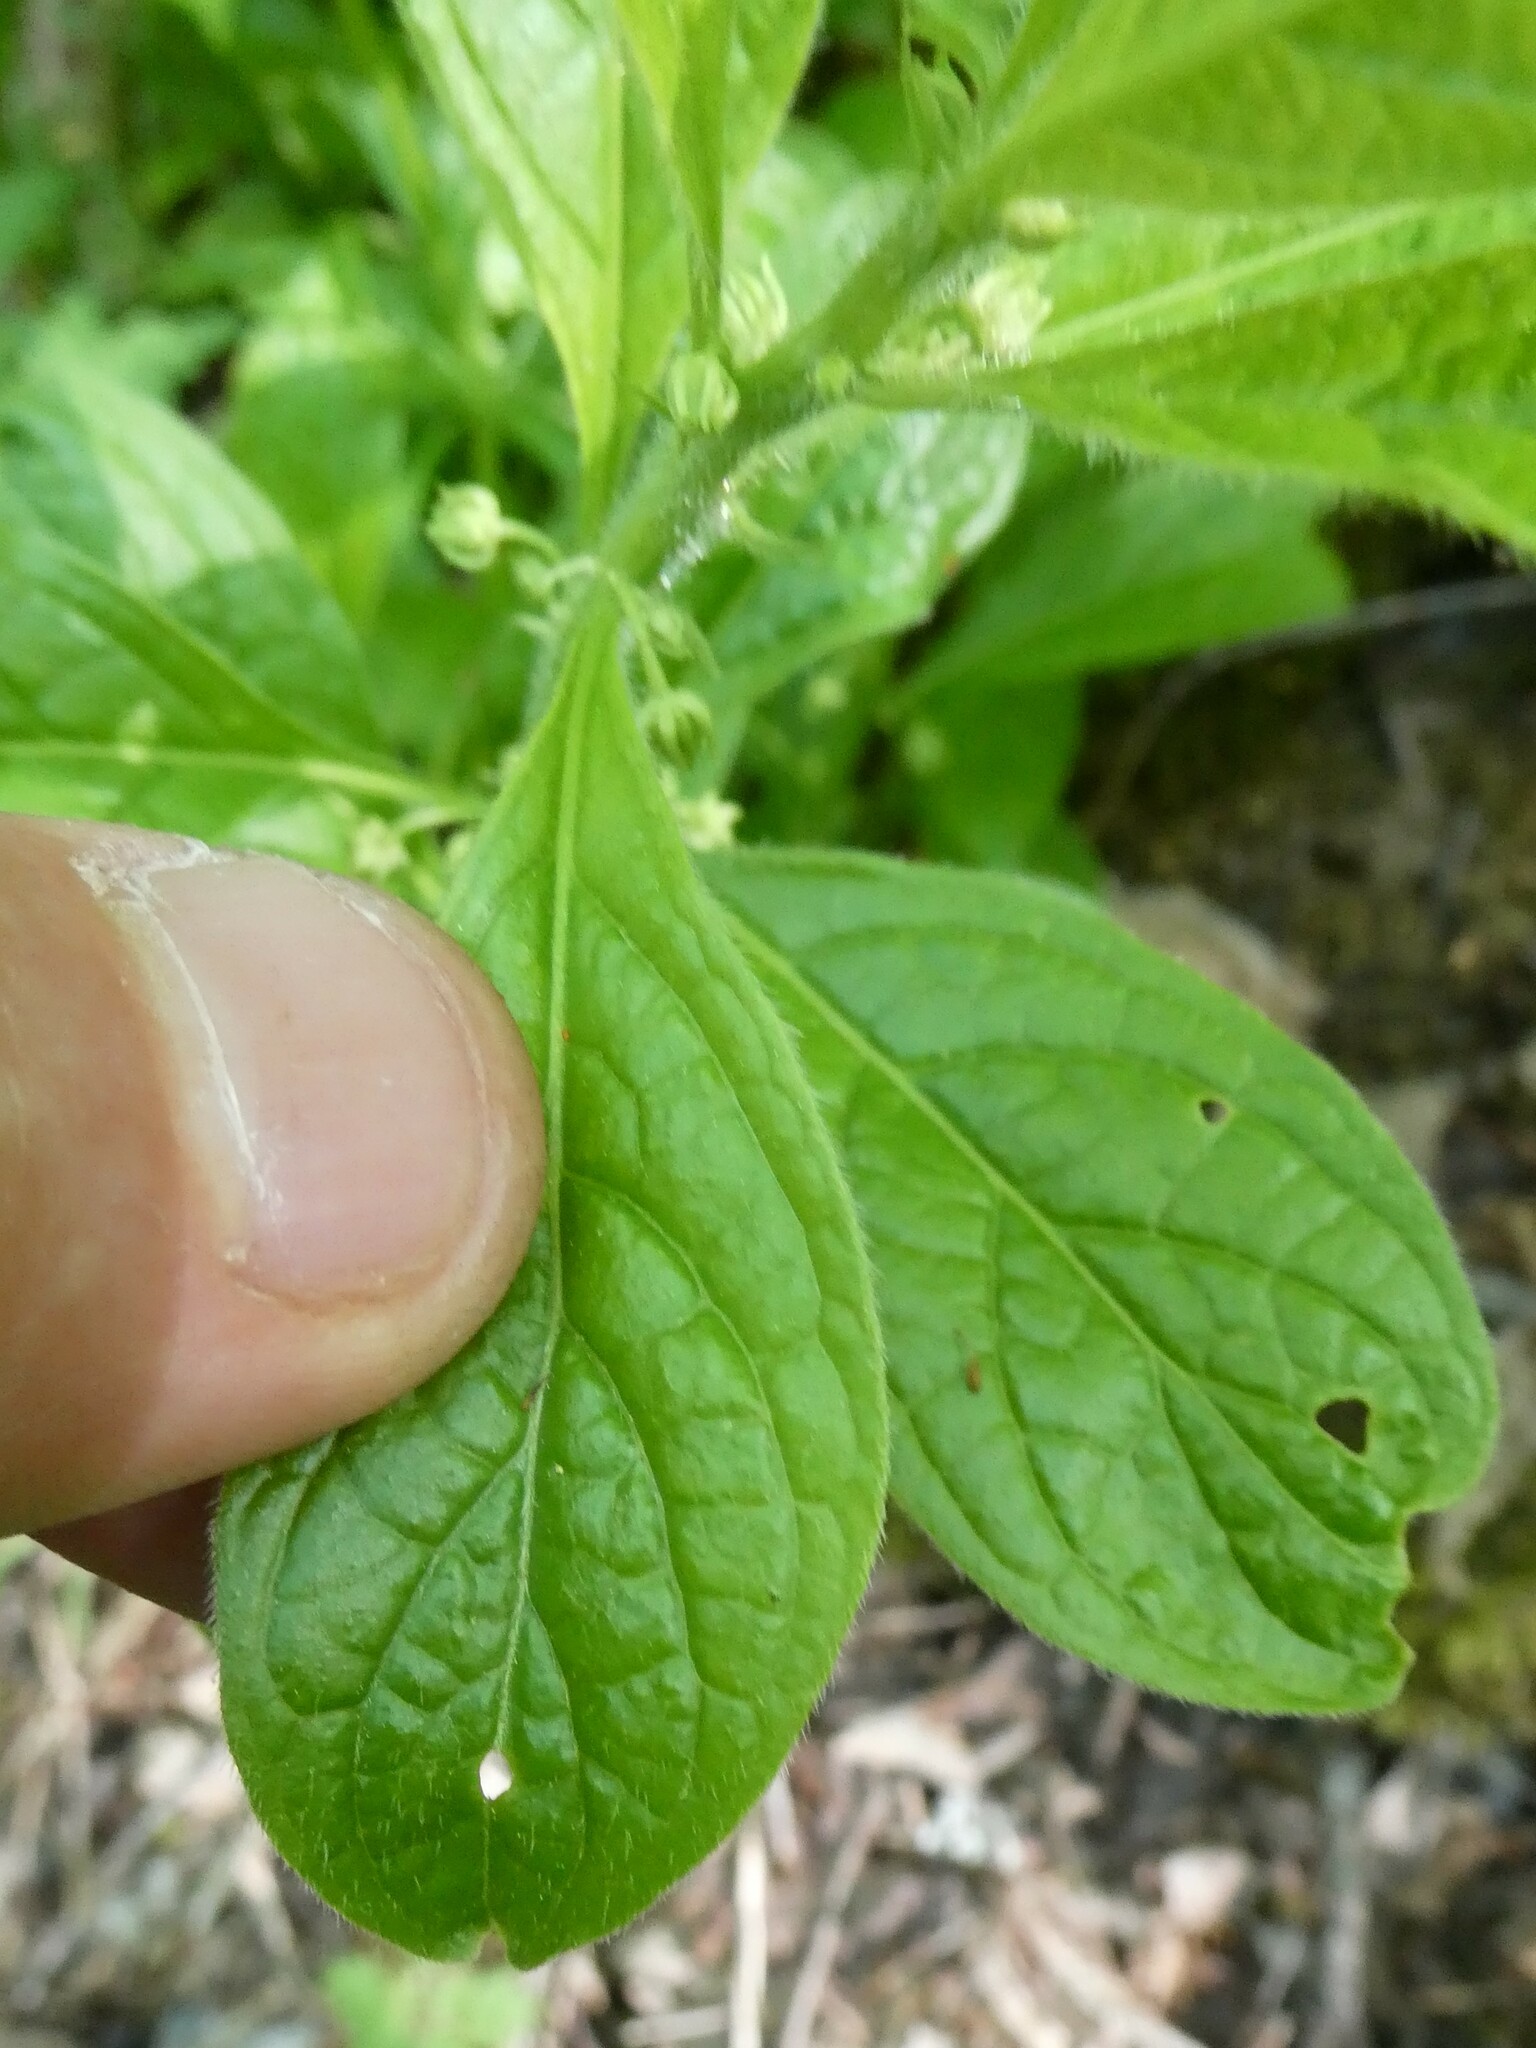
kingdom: Plantae
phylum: Tracheophyta
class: Magnoliopsida
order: Malpighiales
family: Violaceae
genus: Cubelium
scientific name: Cubelium concolor
